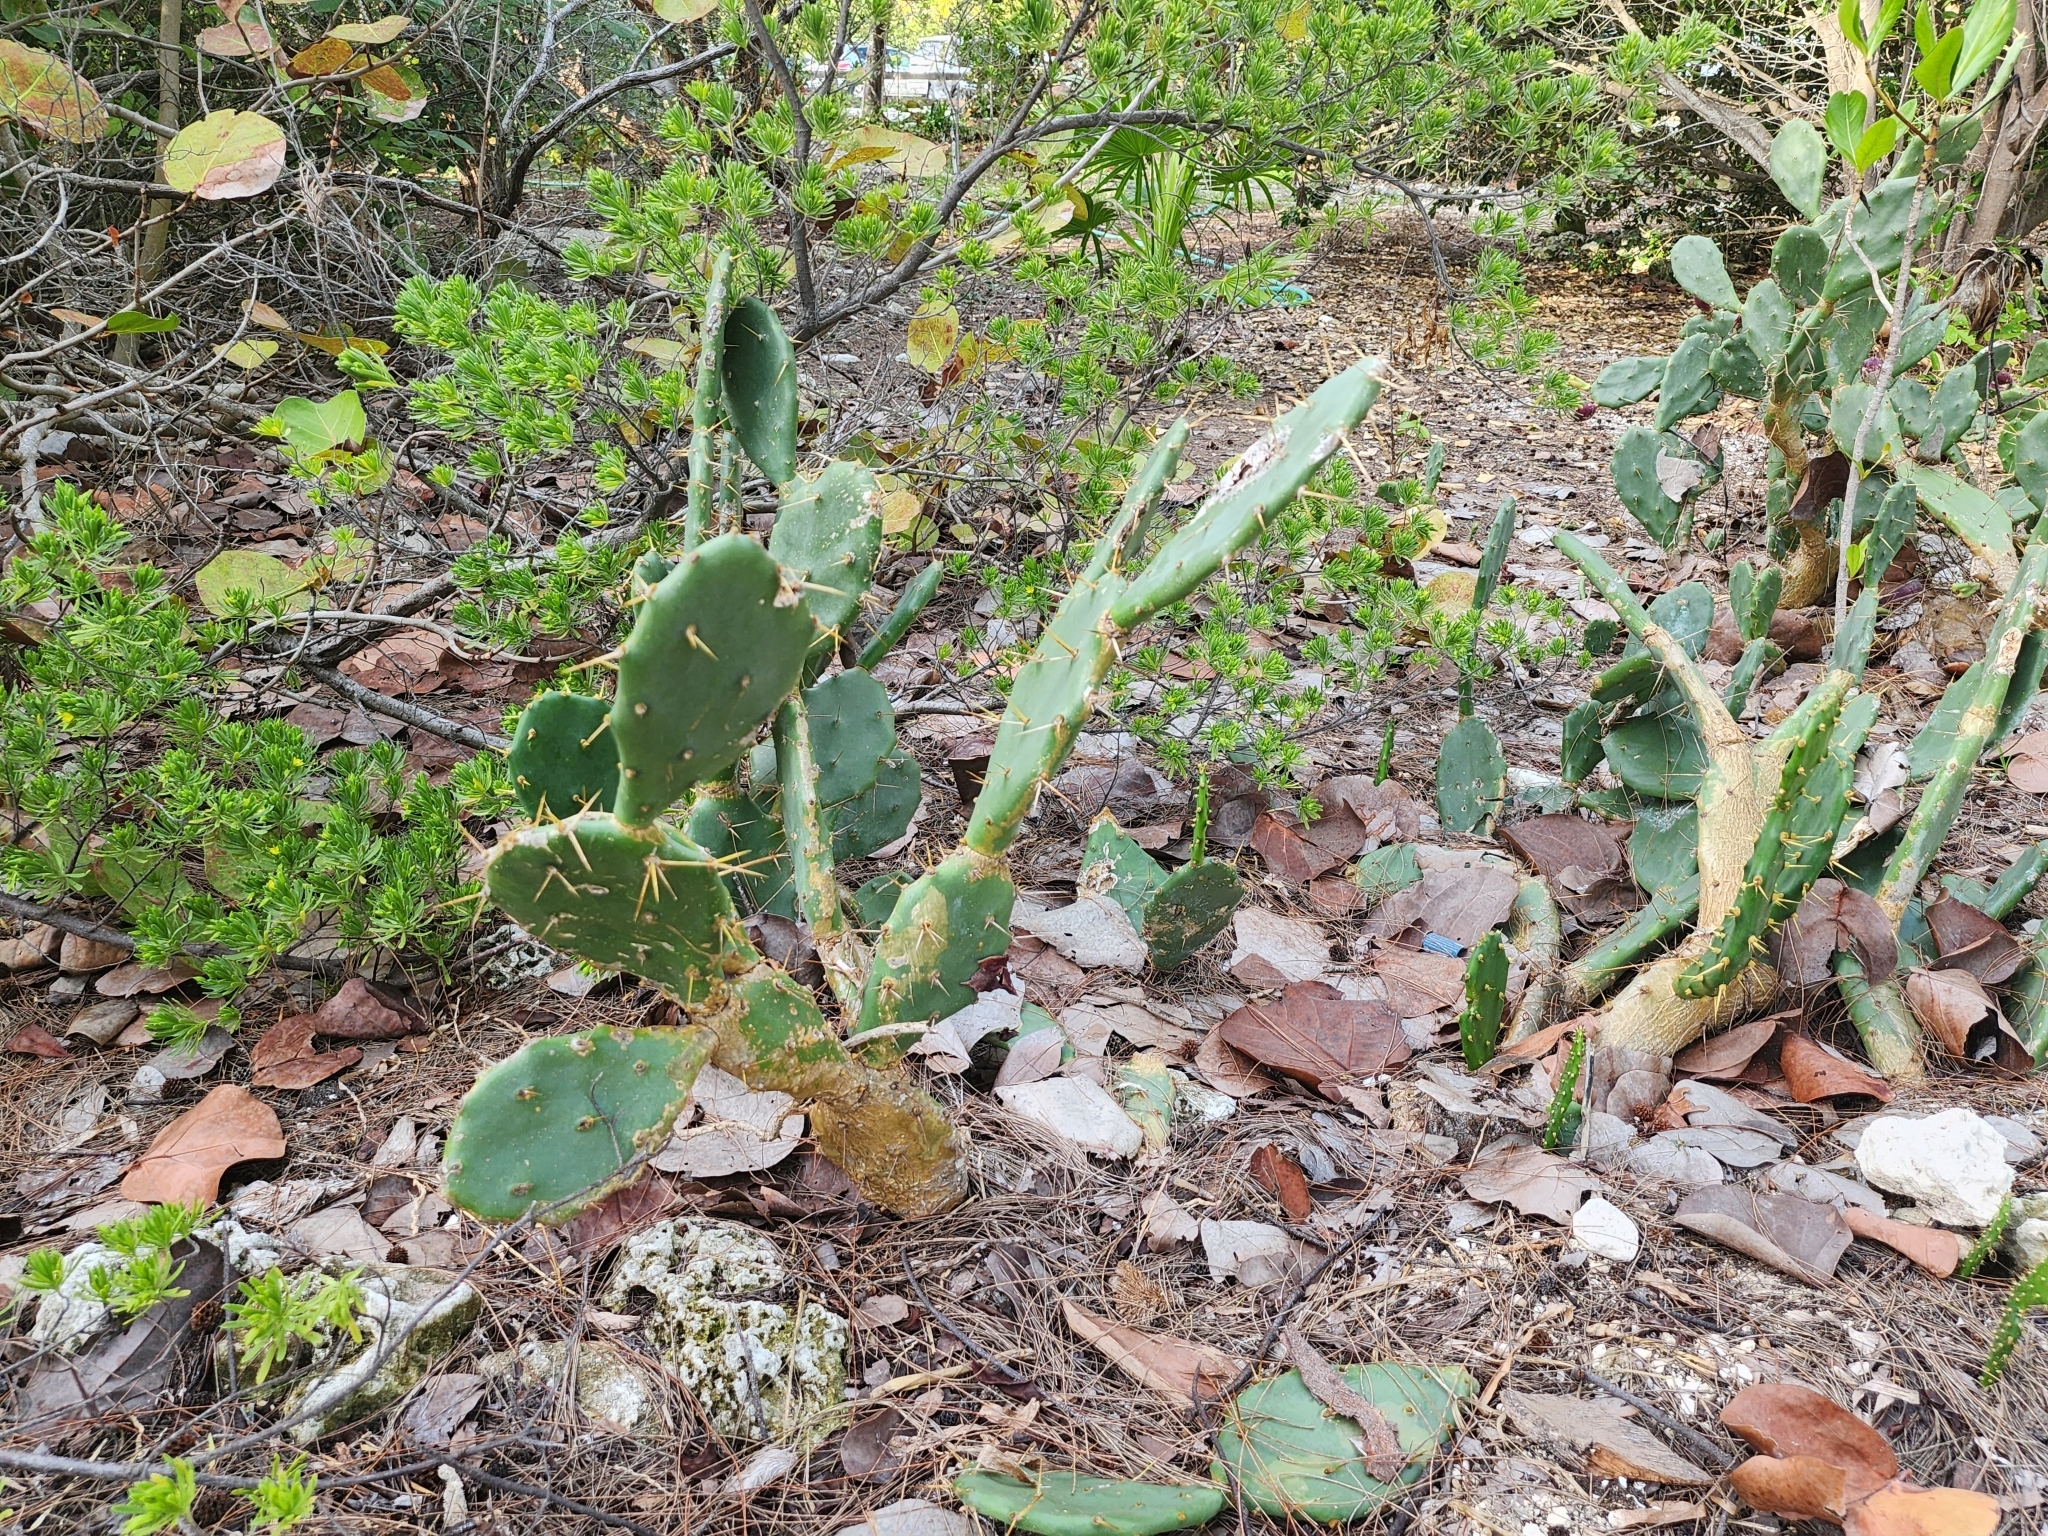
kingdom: Plantae
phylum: Tracheophyta
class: Magnoliopsida
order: Caryophyllales
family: Cactaceae
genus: Opuntia
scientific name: Opuntia stricta
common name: Erect pricklypear
